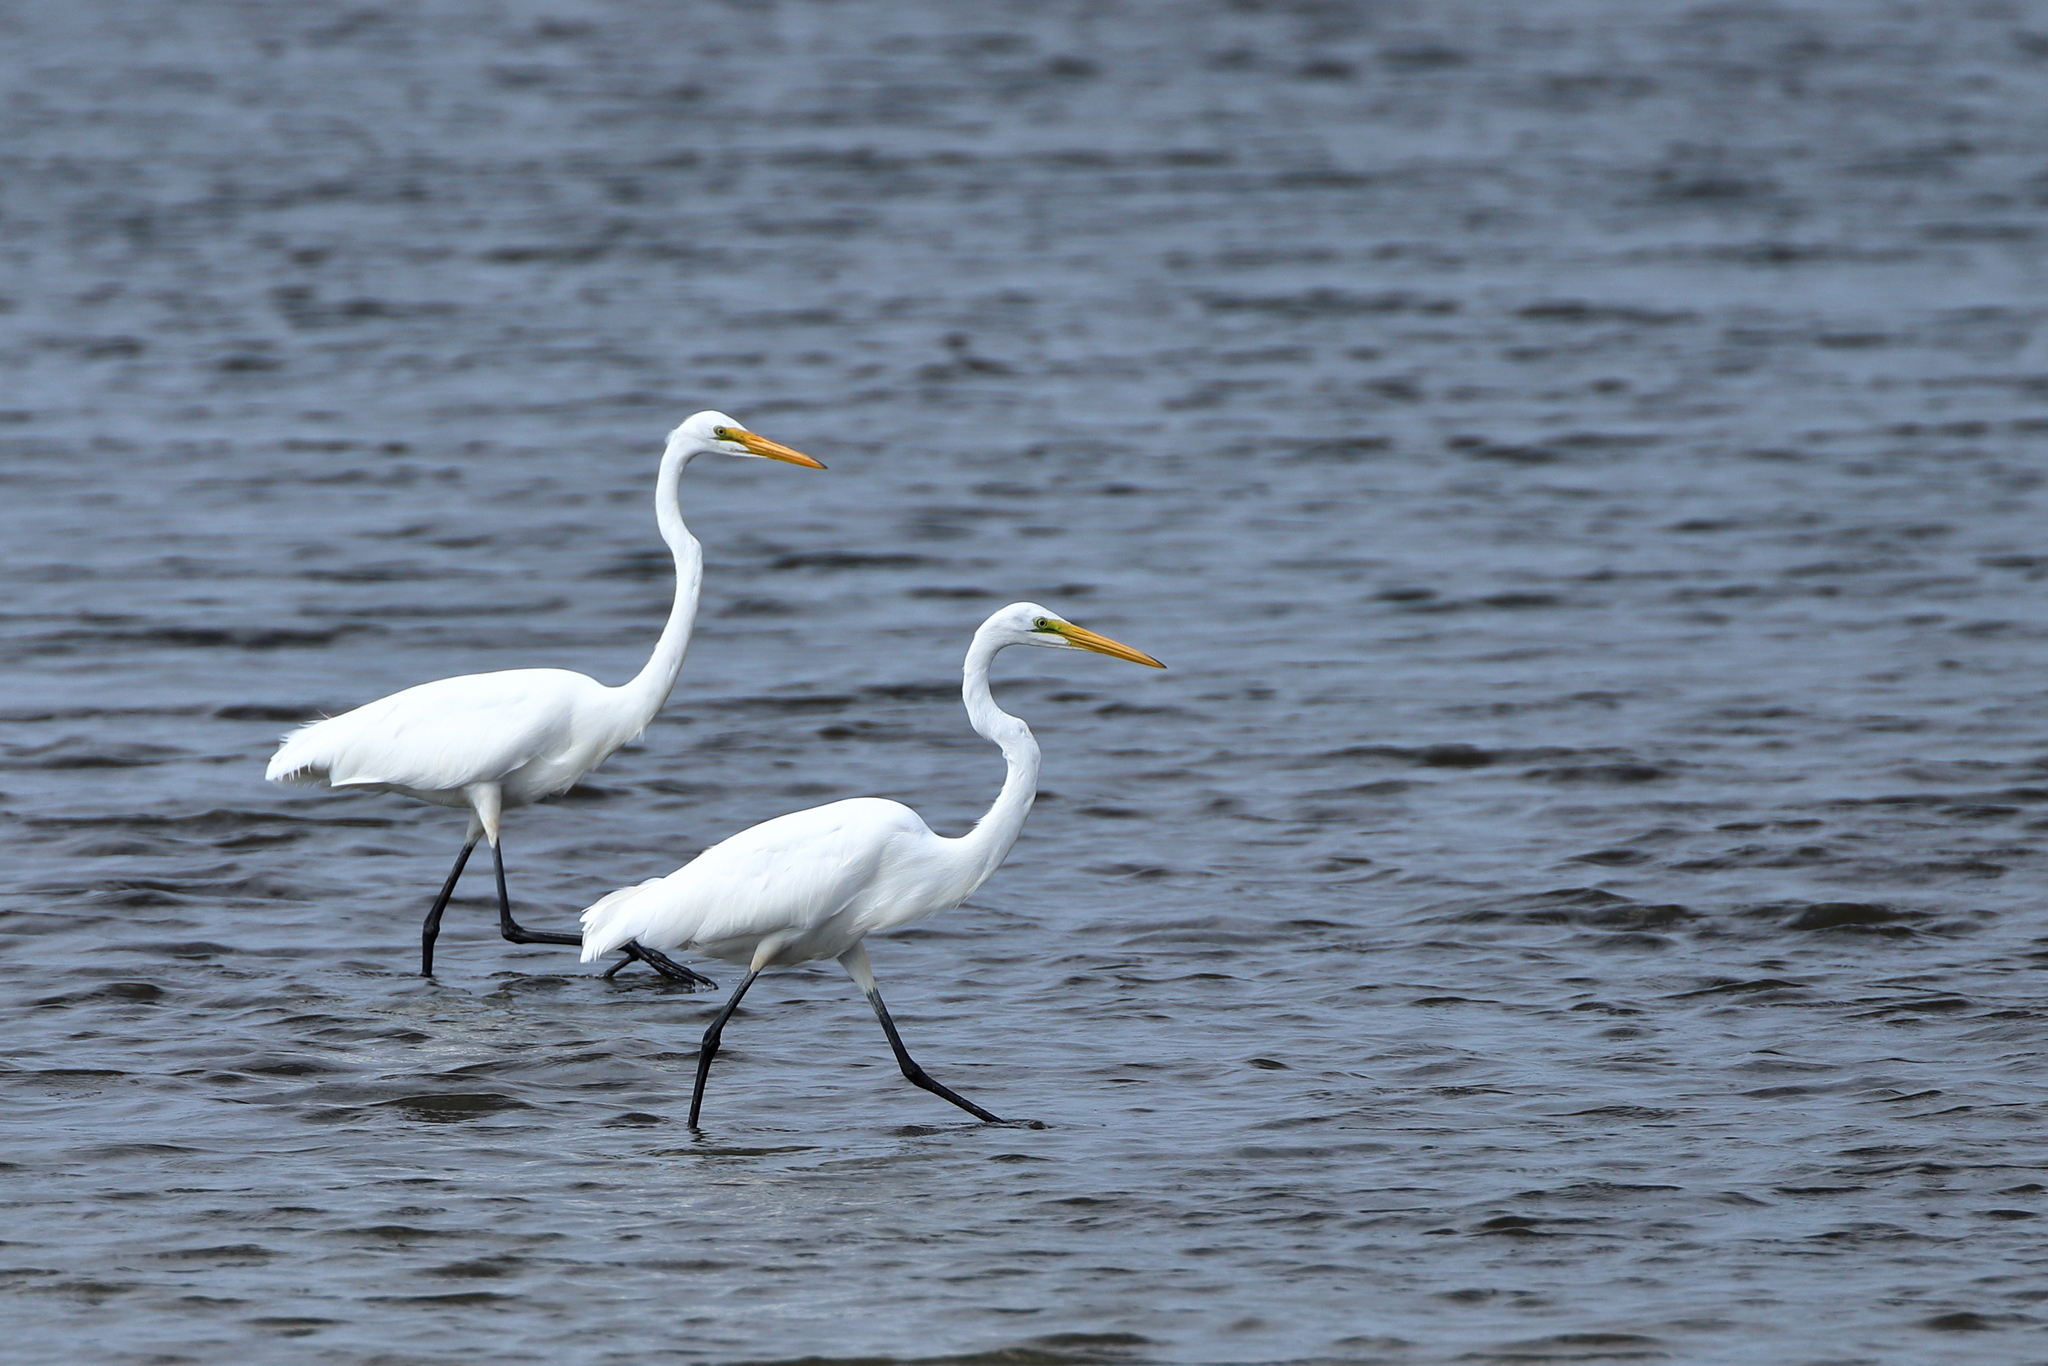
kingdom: Animalia
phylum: Chordata
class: Aves
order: Pelecaniformes
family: Ardeidae
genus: Ardea
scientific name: Ardea alba
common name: Great egret
